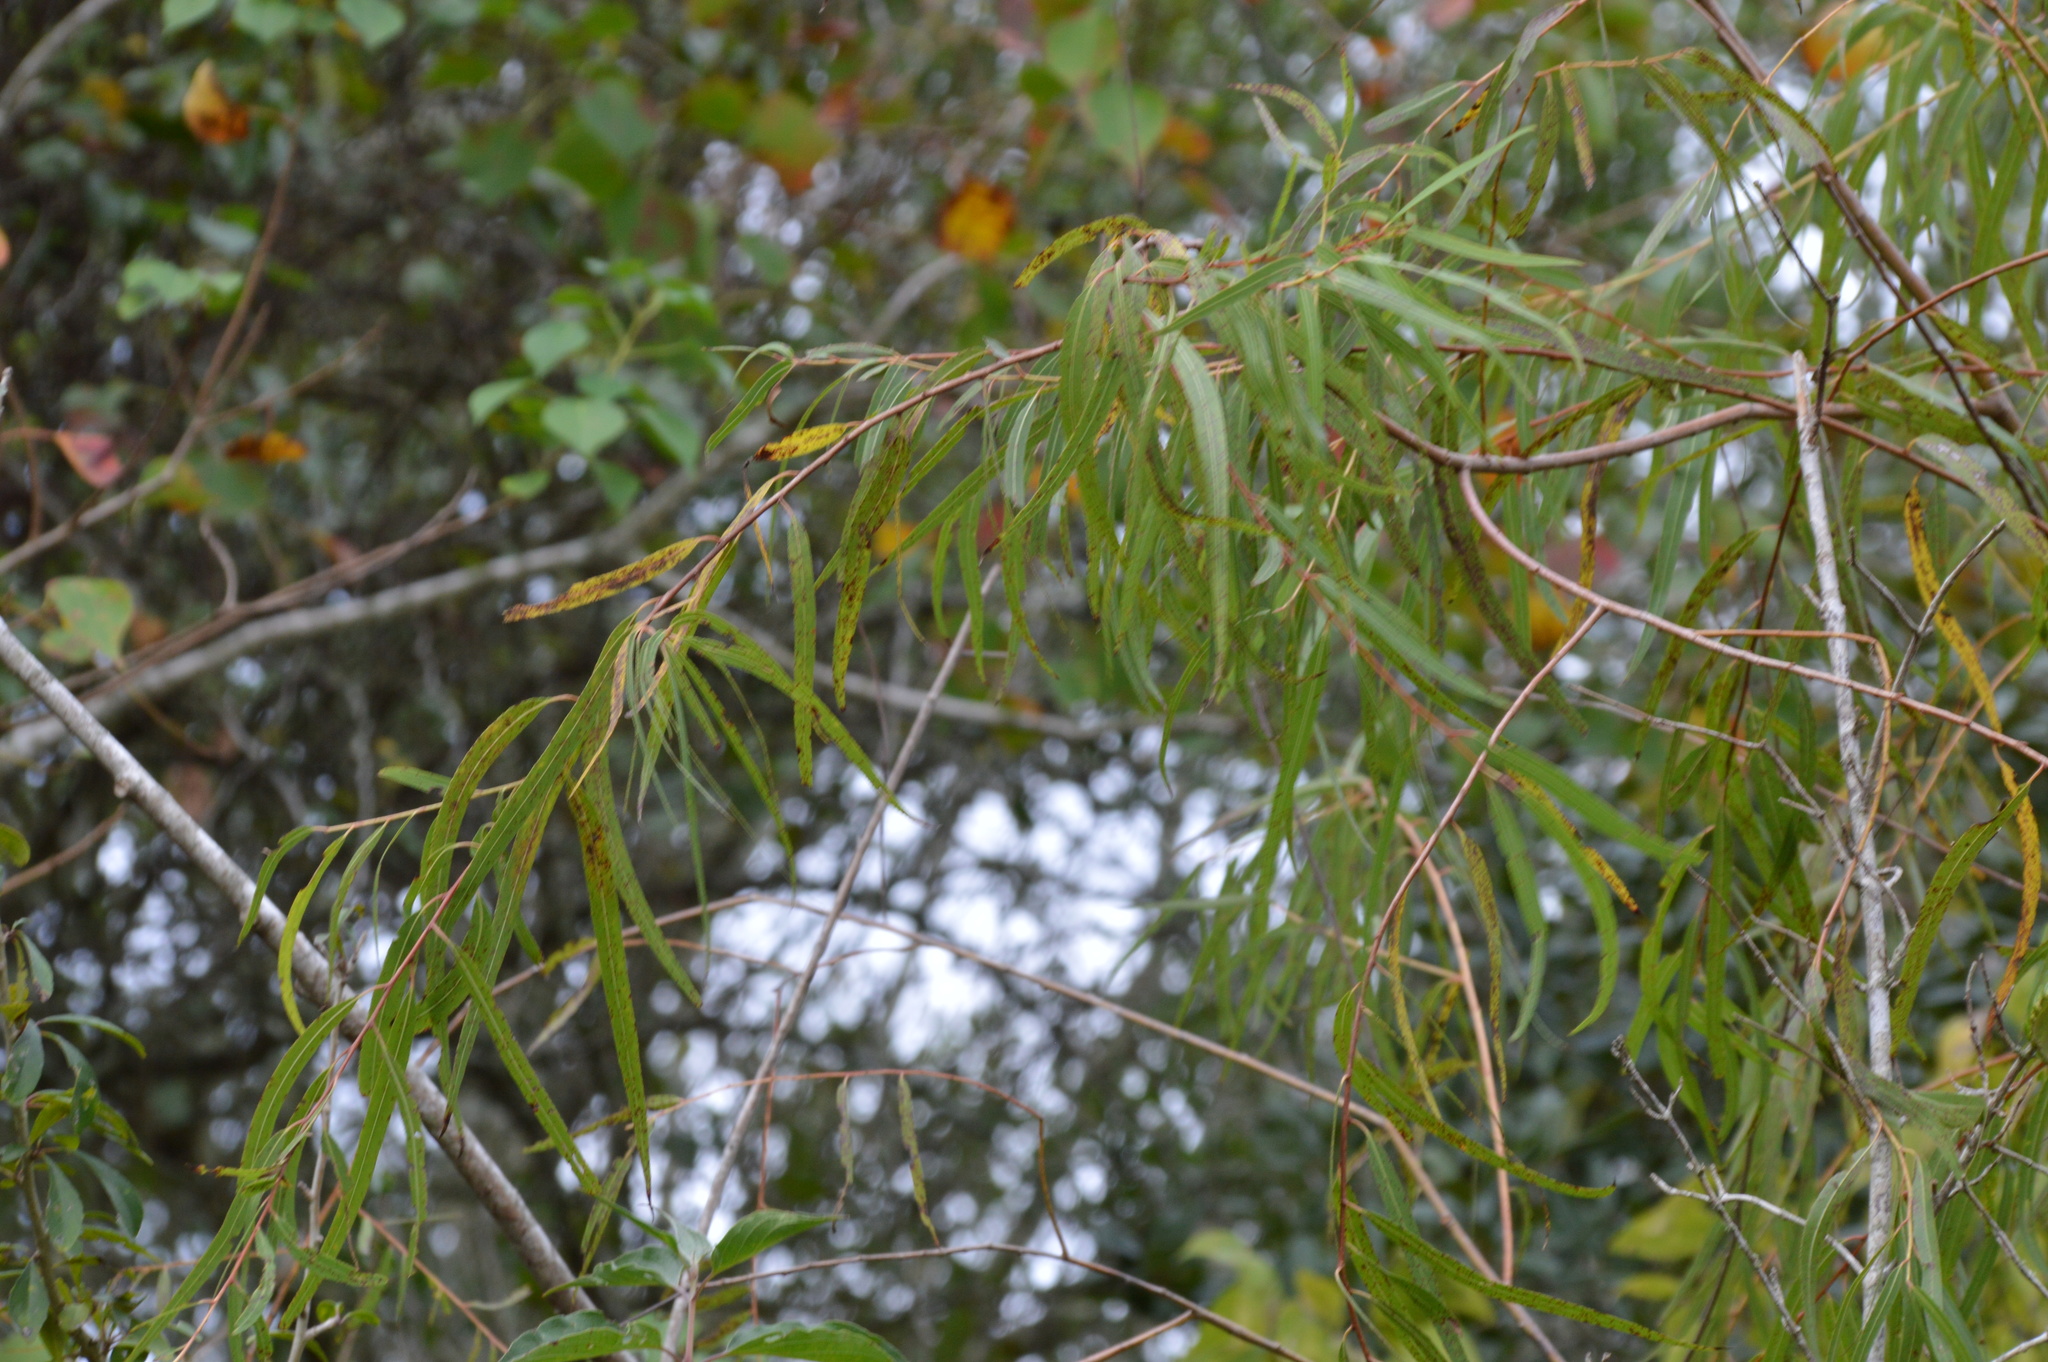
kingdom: Plantae
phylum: Tracheophyta
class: Magnoliopsida
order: Malpighiales
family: Salicaceae
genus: Salix
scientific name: Salix nigra
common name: Black willow
